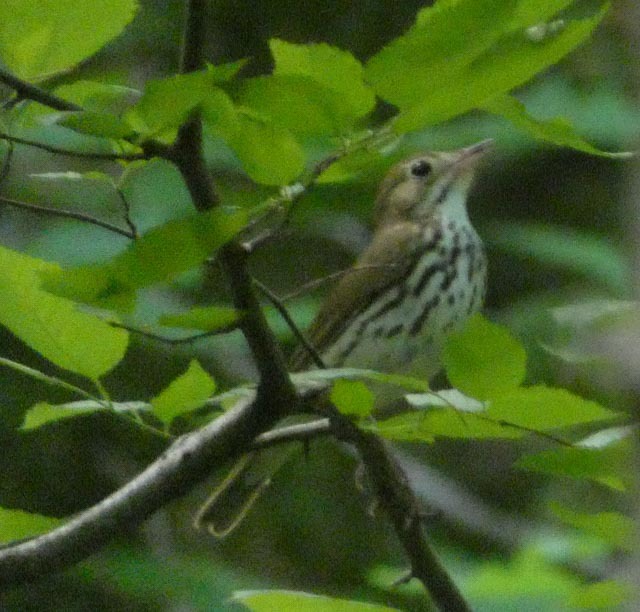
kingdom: Animalia
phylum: Chordata
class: Aves
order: Passeriformes
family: Parulidae
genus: Seiurus
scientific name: Seiurus aurocapilla
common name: Ovenbird
